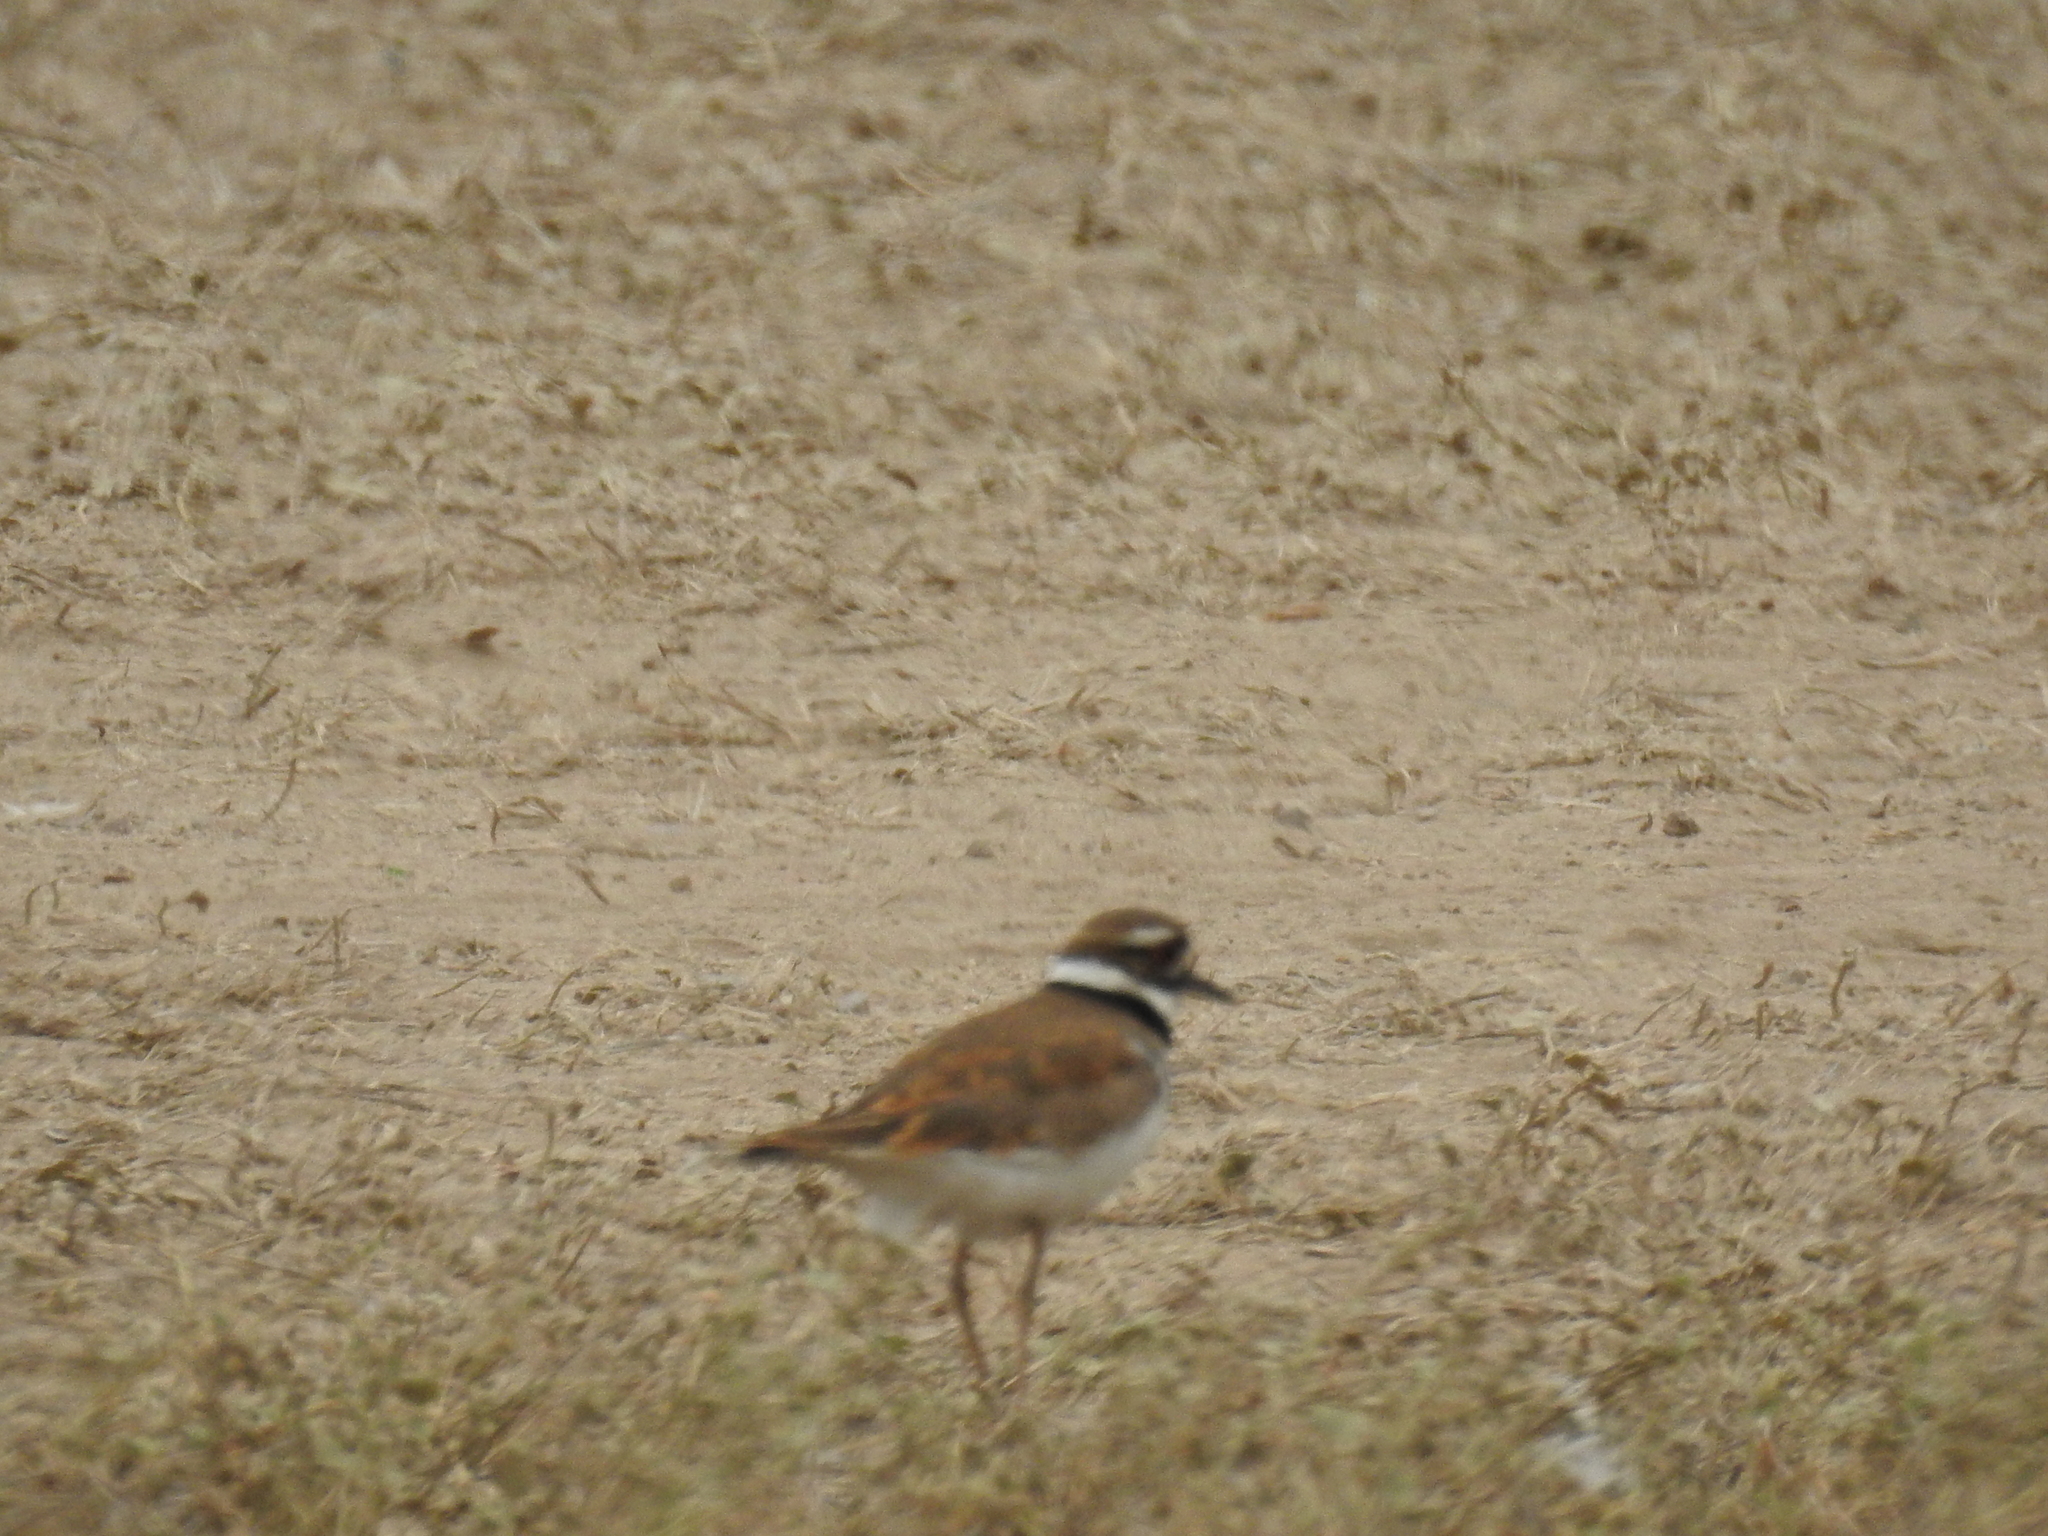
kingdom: Animalia
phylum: Chordata
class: Aves
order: Charadriiformes
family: Charadriidae
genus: Charadrius
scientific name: Charadrius vociferus
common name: Killdeer
